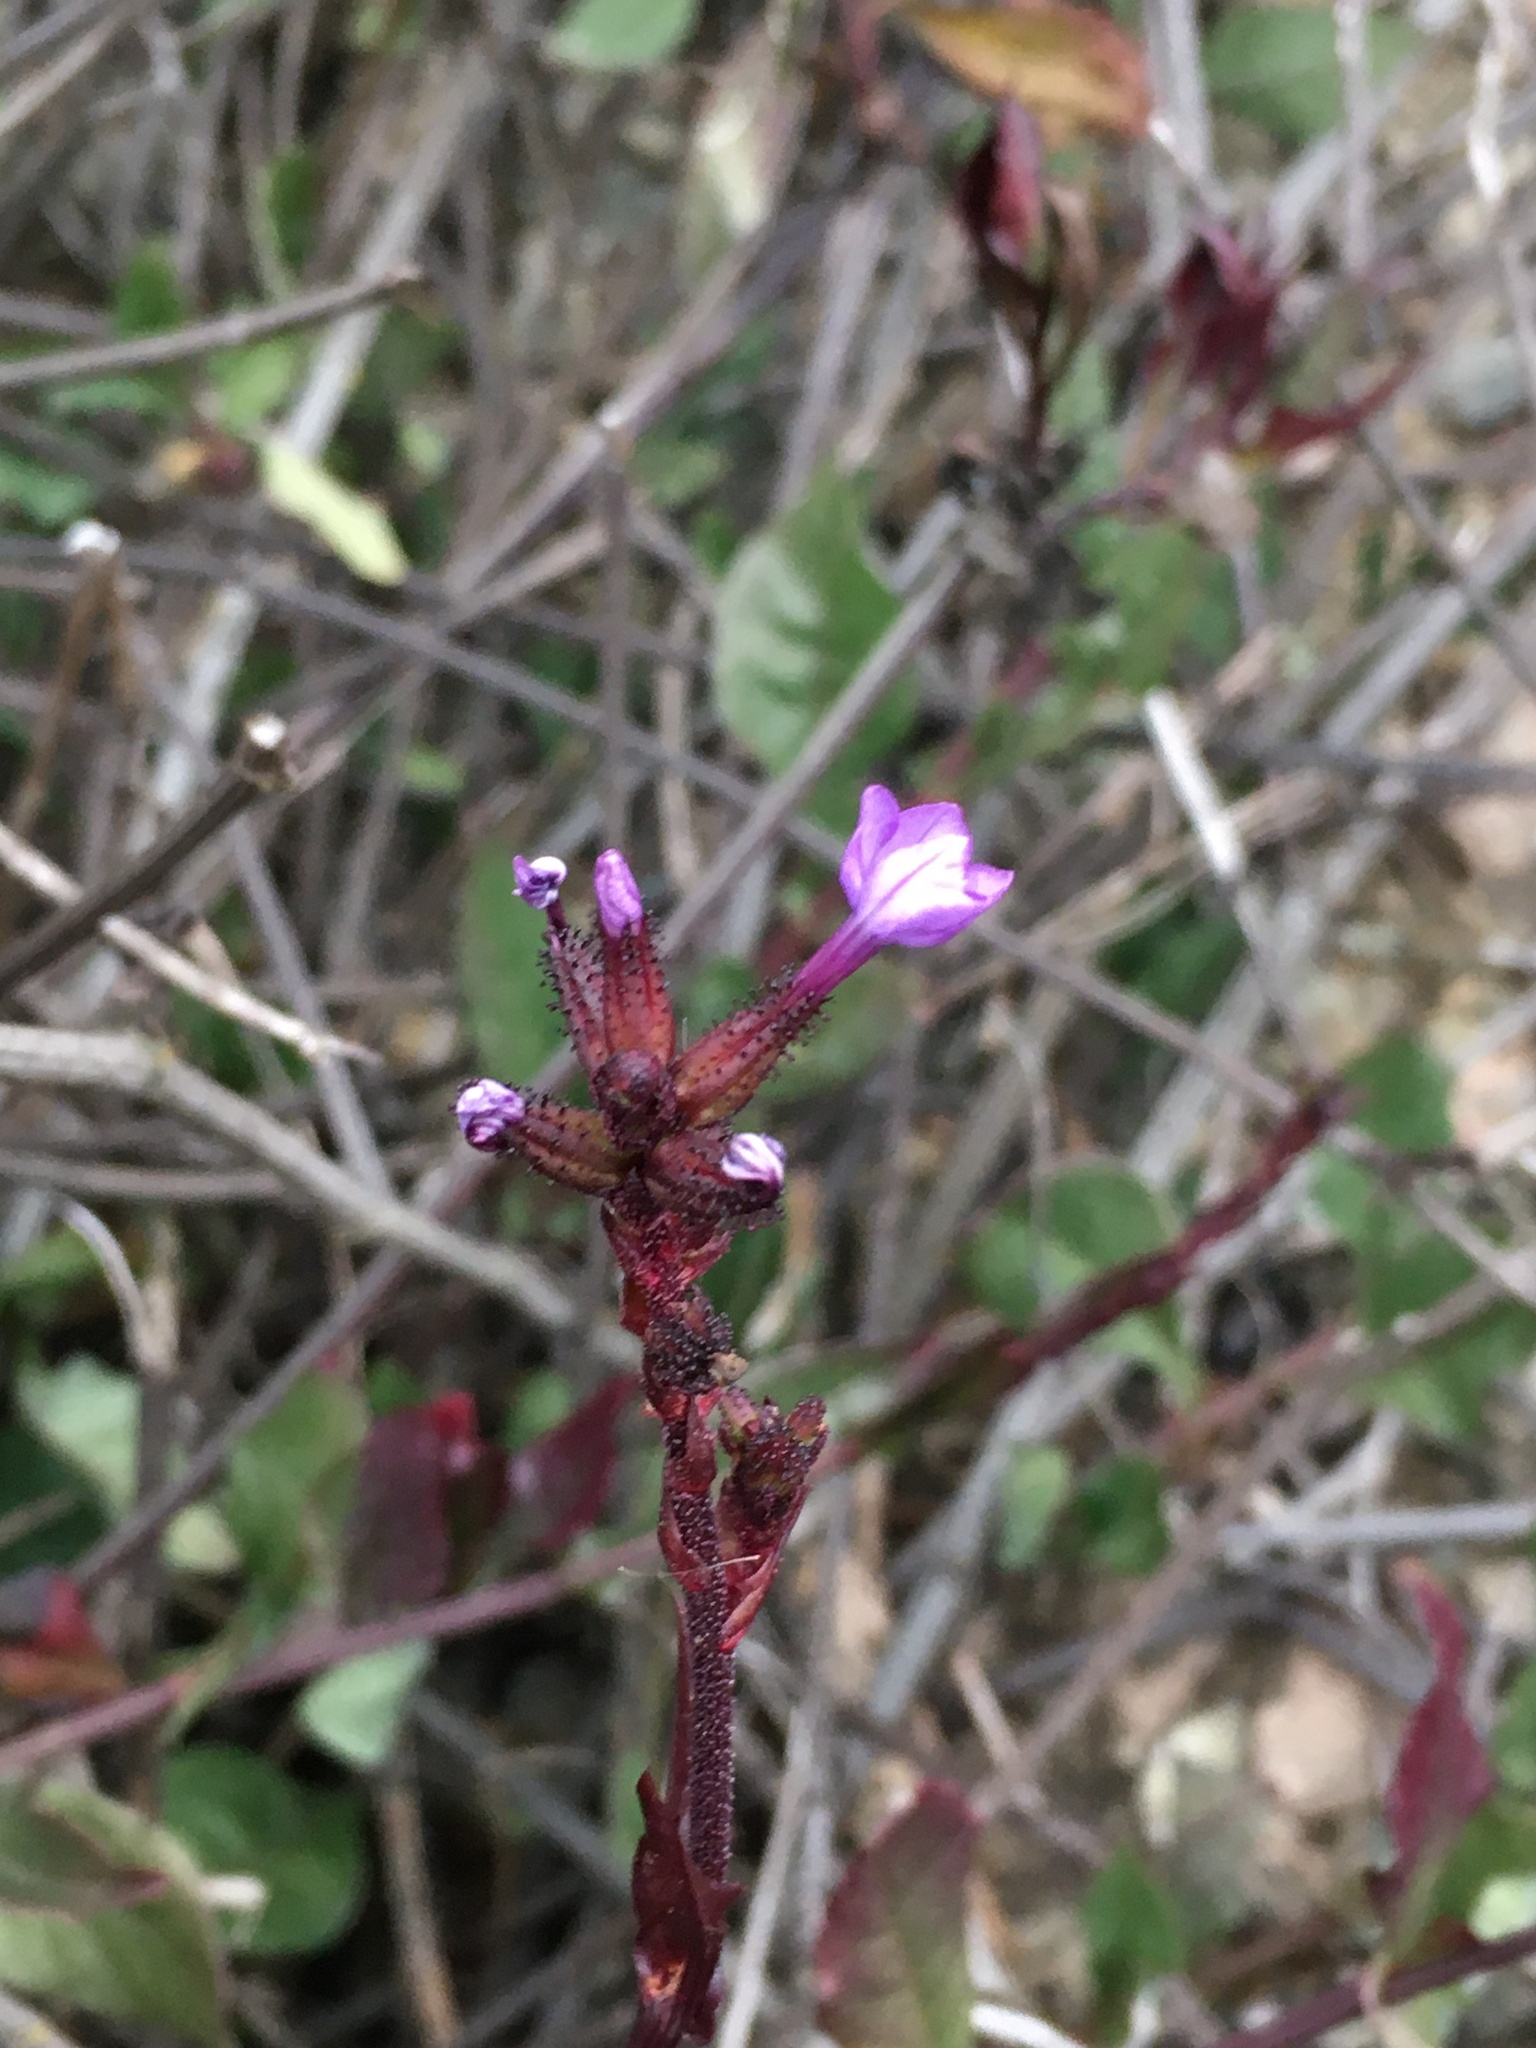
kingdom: Plantae
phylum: Tracheophyta
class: Magnoliopsida
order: Caryophyllales
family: Plumbaginaceae
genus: Plumbago
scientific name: Plumbago caerulea
